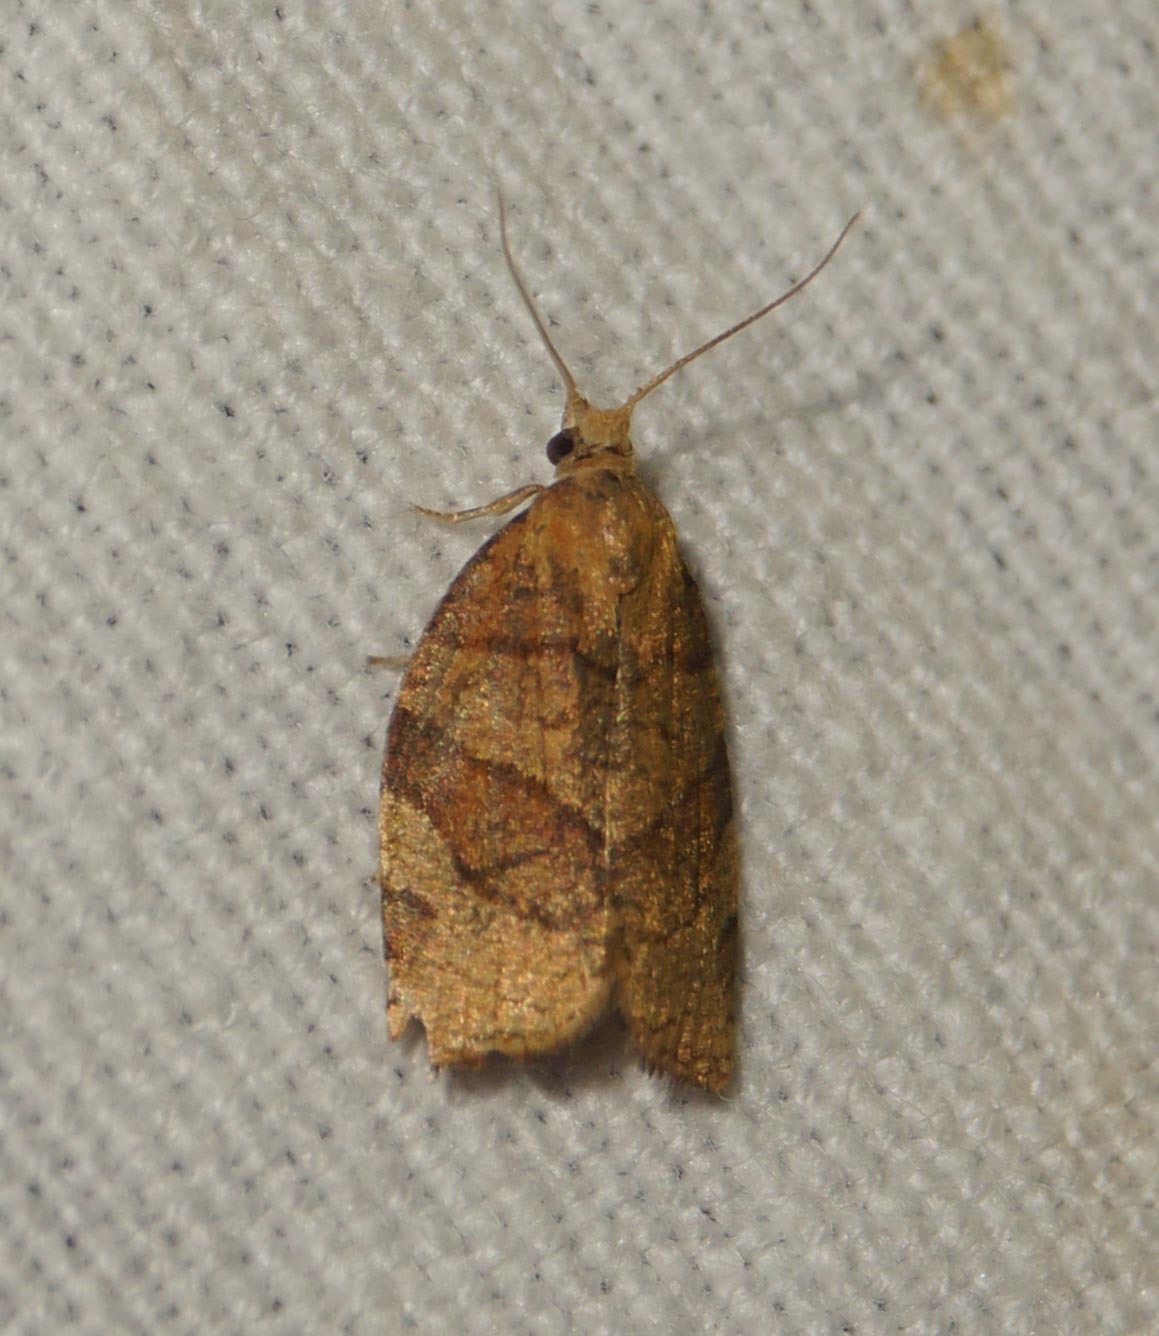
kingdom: Animalia
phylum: Arthropoda
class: Insecta
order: Lepidoptera
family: Tortricidae
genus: Pandemis
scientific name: Pandemis cerasana
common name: Barred fruit-tree tortrix
